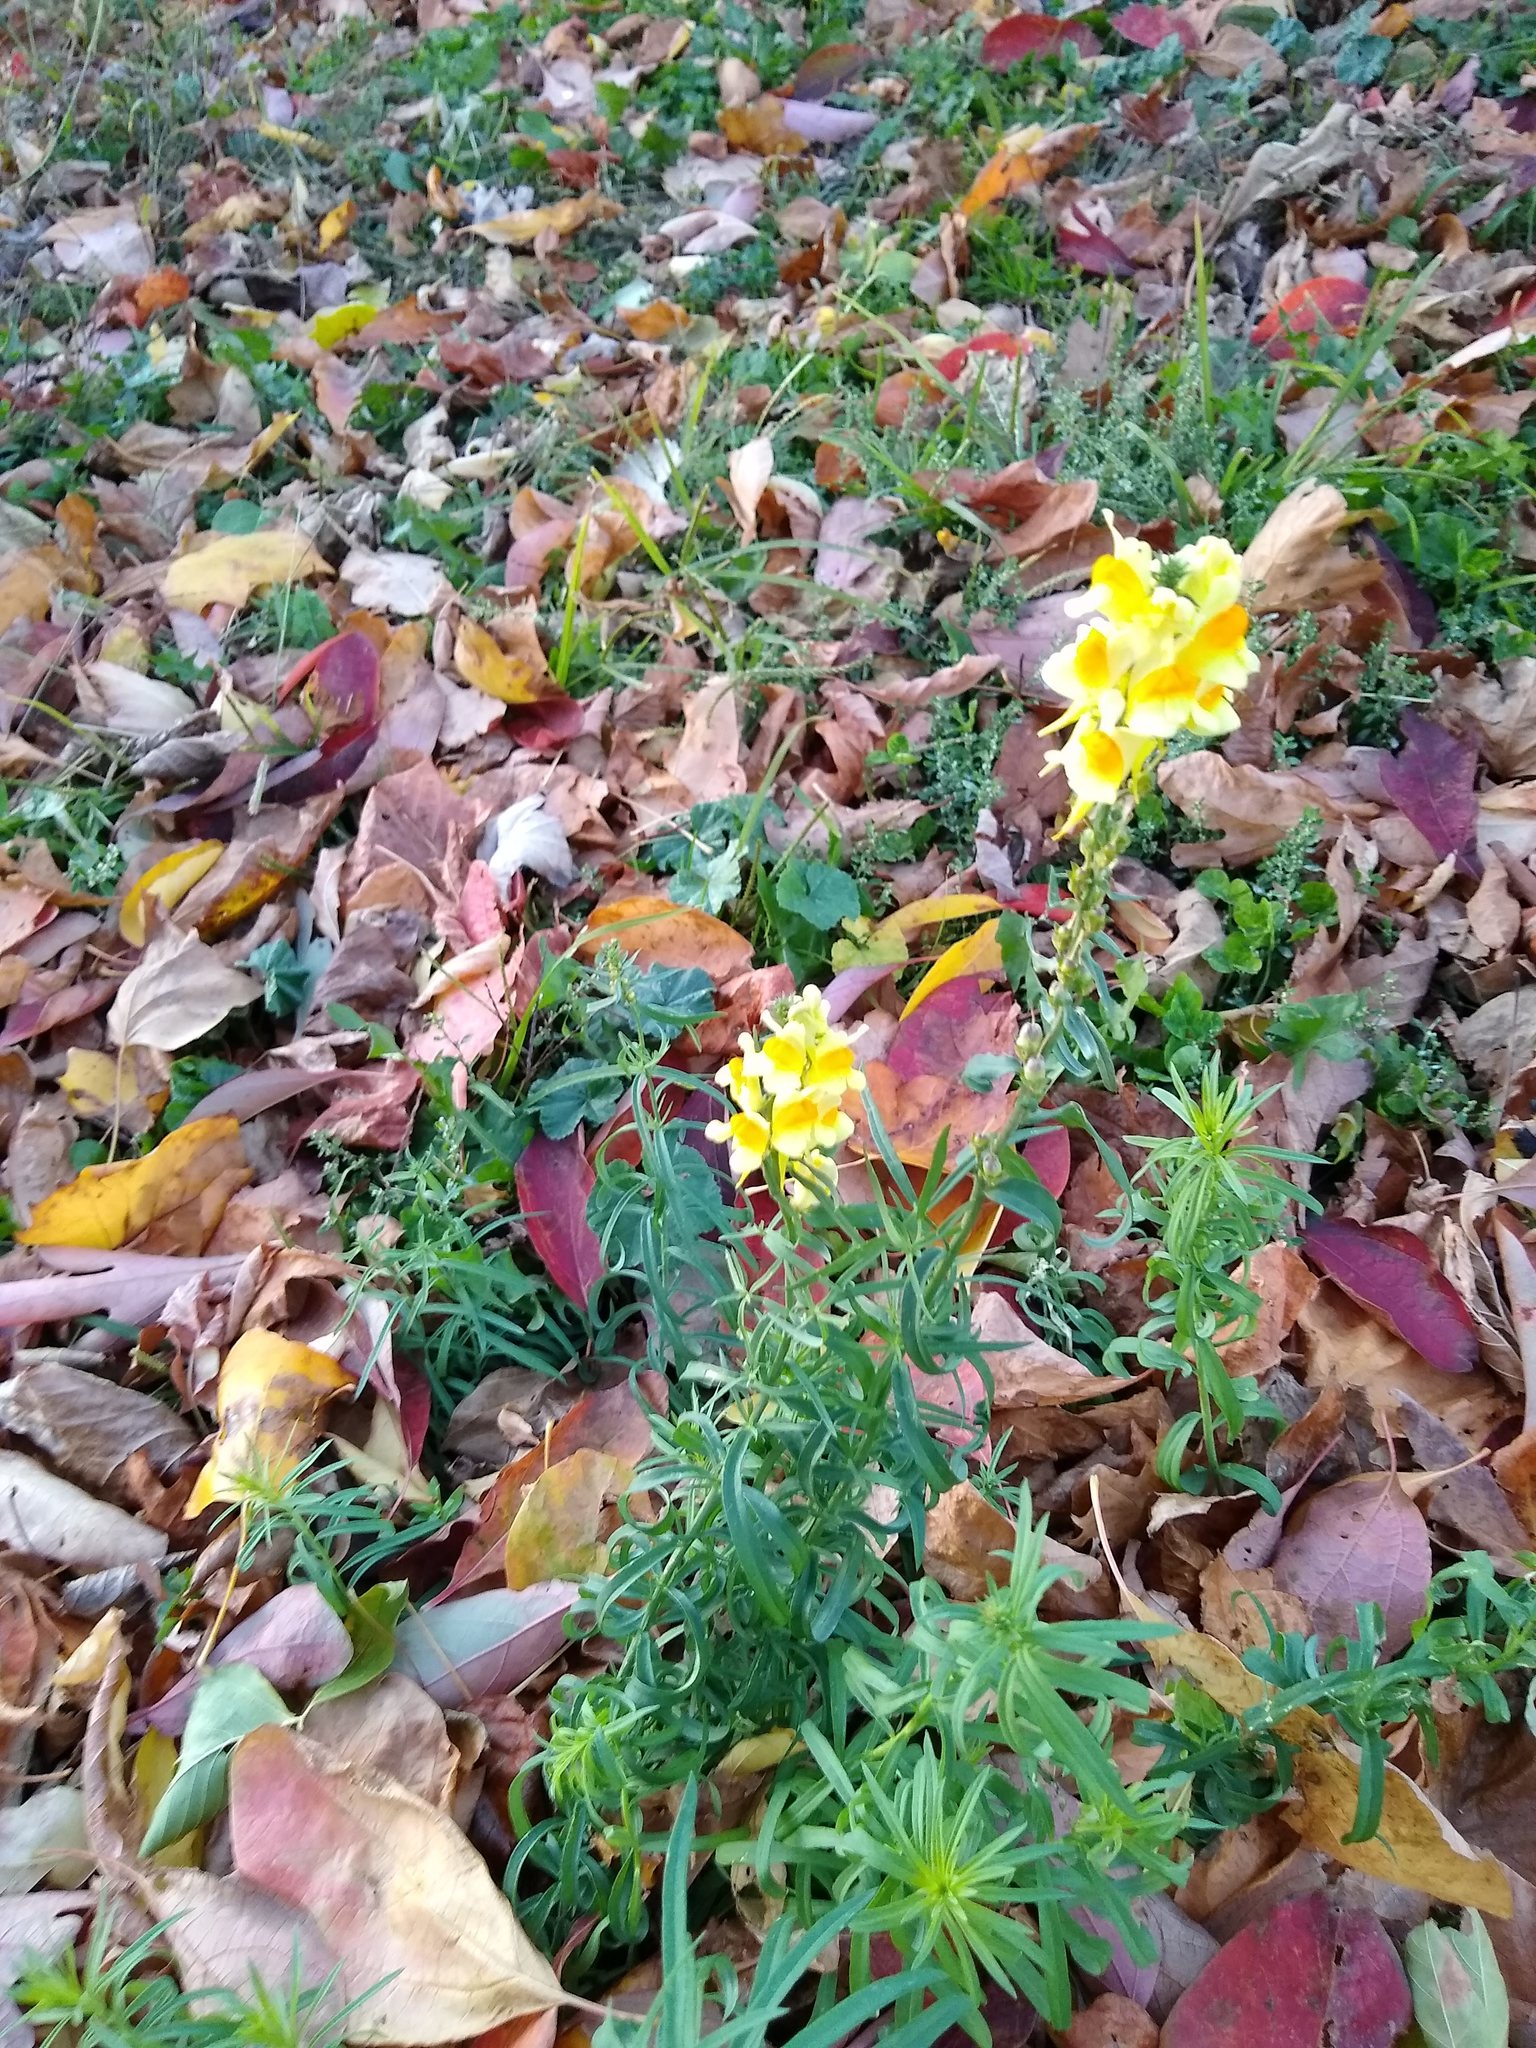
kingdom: Plantae
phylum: Tracheophyta
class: Magnoliopsida
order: Lamiales
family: Plantaginaceae
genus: Linaria
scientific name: Linaria vulgaris
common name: Butter and eggs
